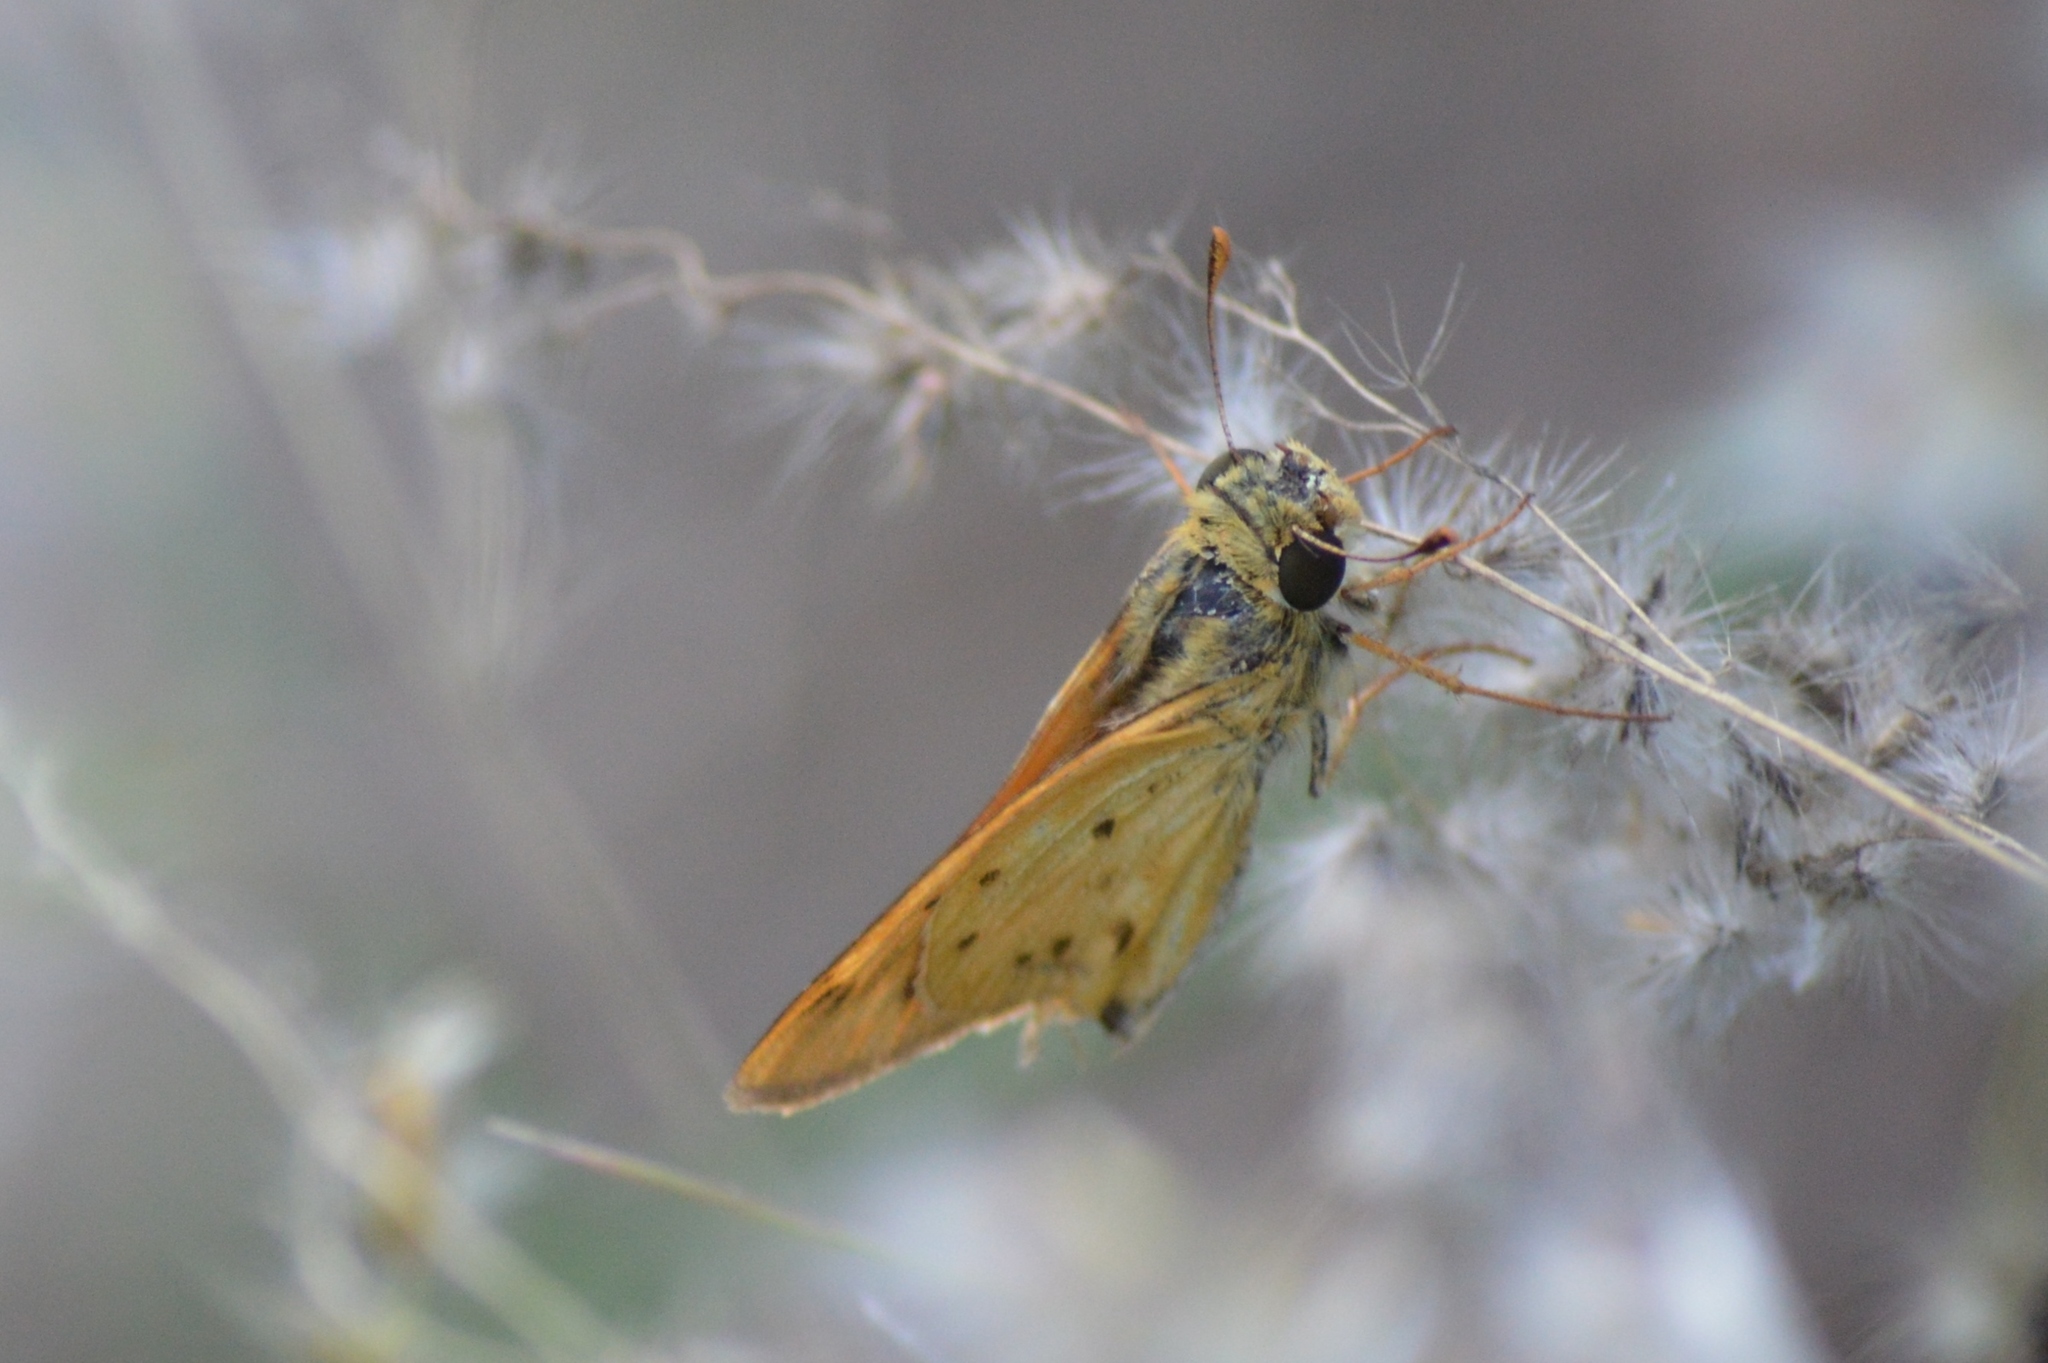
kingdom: Animalia
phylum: Arthropoda
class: Insecta
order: Lepidoptera
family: Hesperiidae
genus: Hylephila
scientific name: Hylephila phyleus
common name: Fiery skipper
